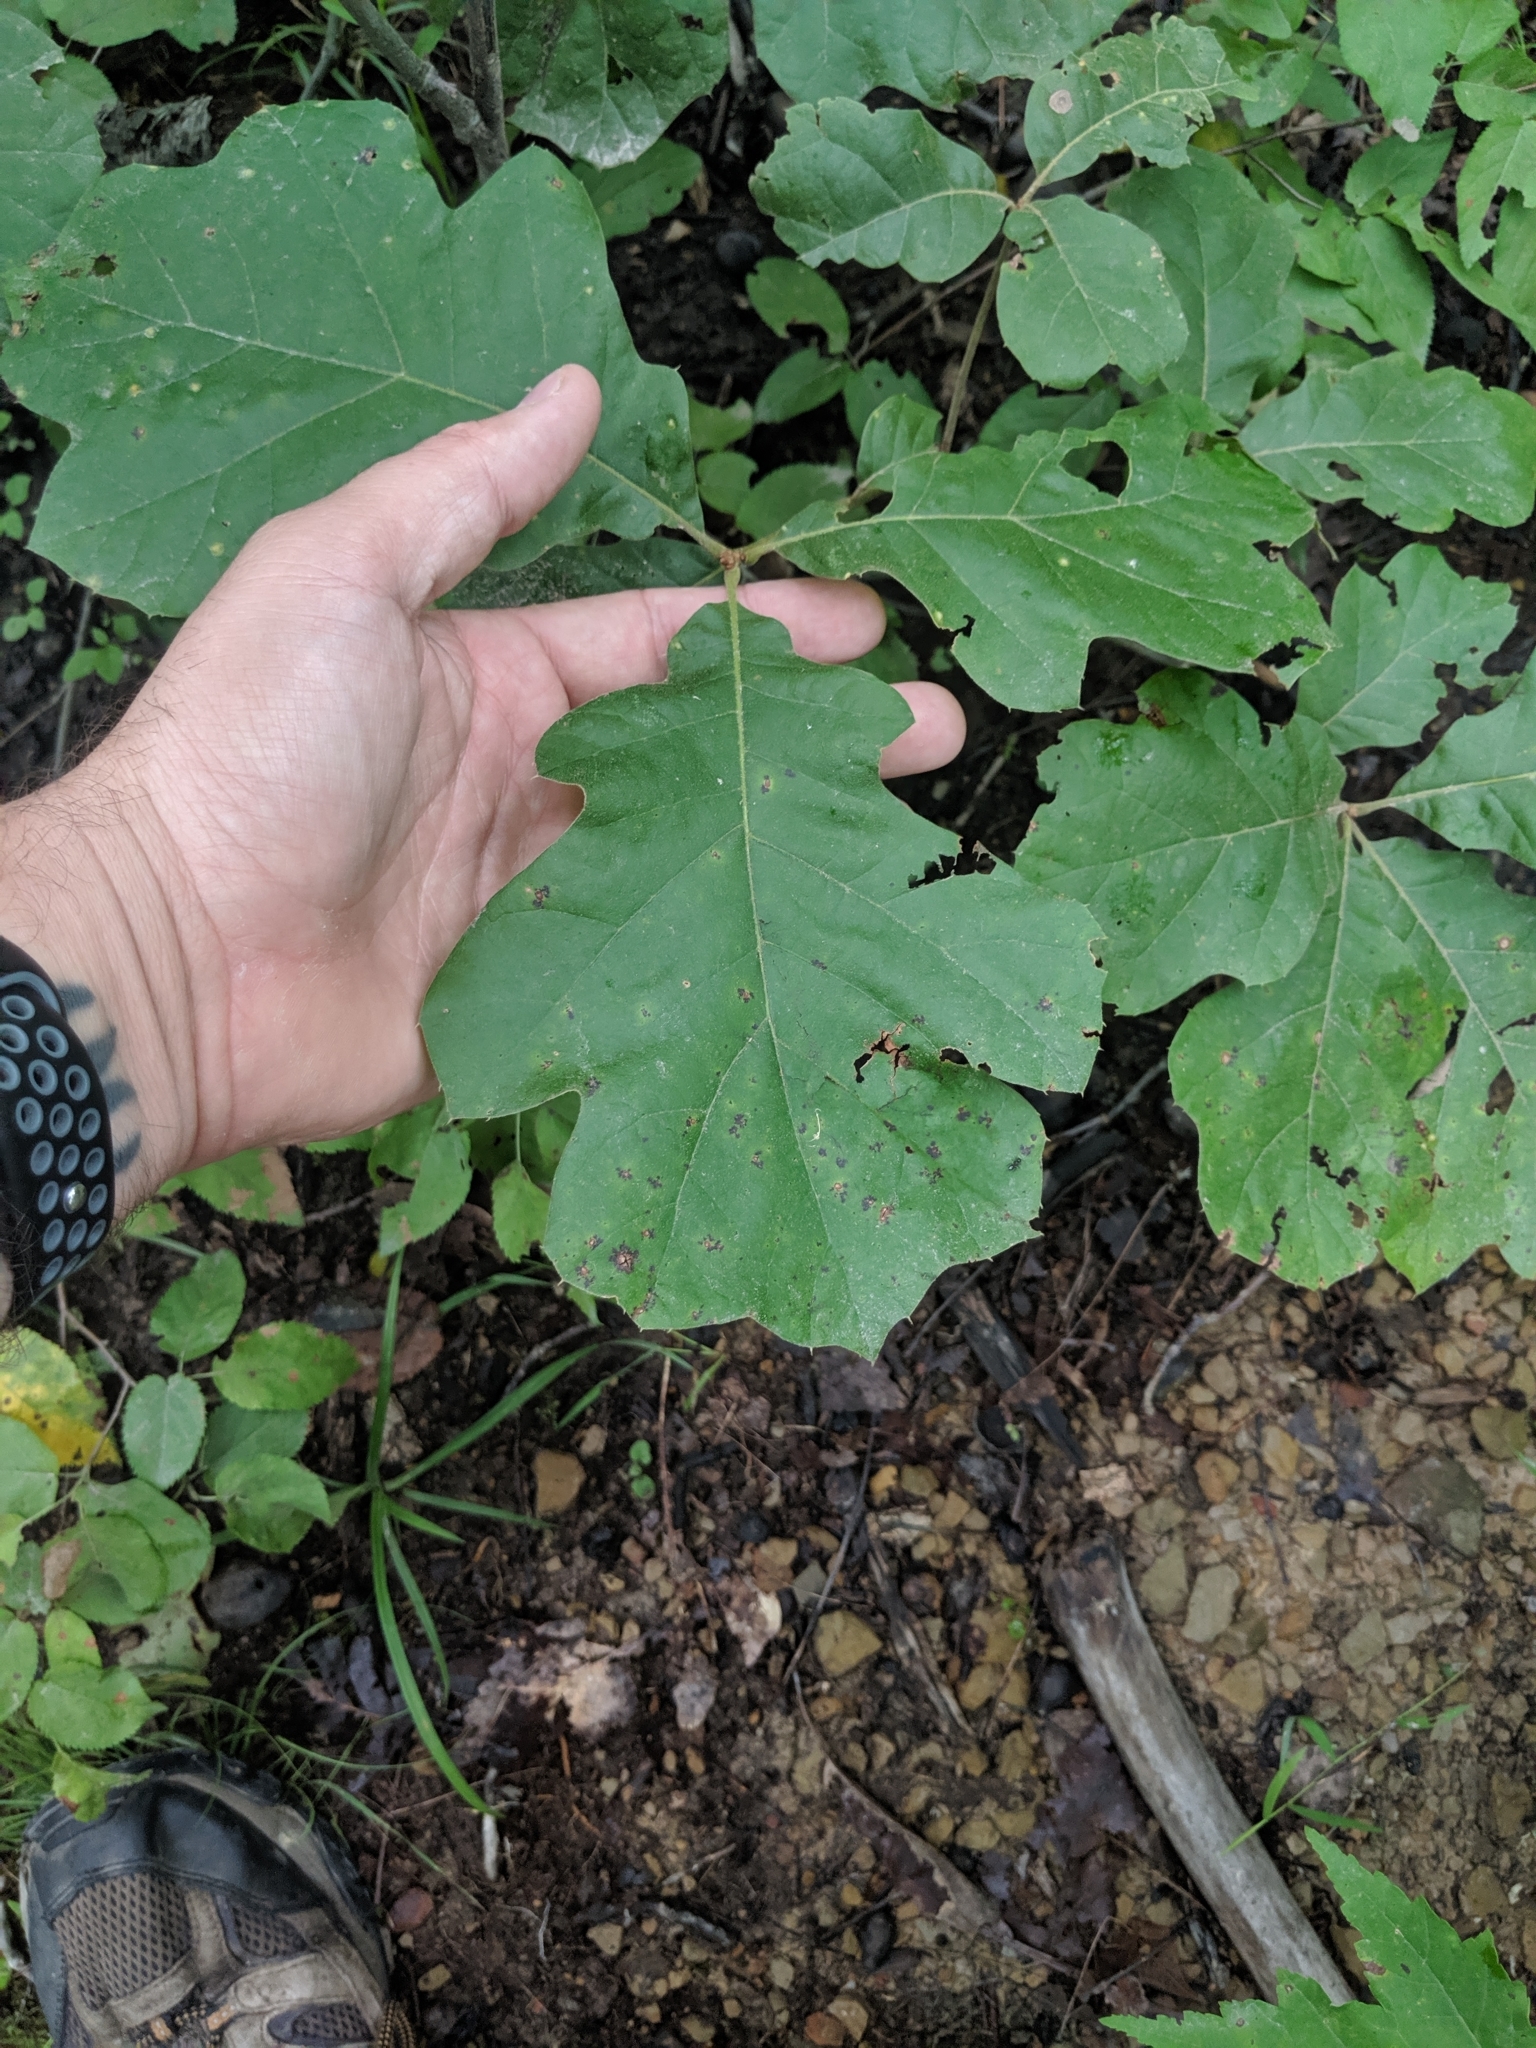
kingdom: Plantae
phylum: Tracheophyta
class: Magnoliopsida
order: Fagales
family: Fagaceae
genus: Quercus
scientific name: Quercus velutina
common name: Black oak
